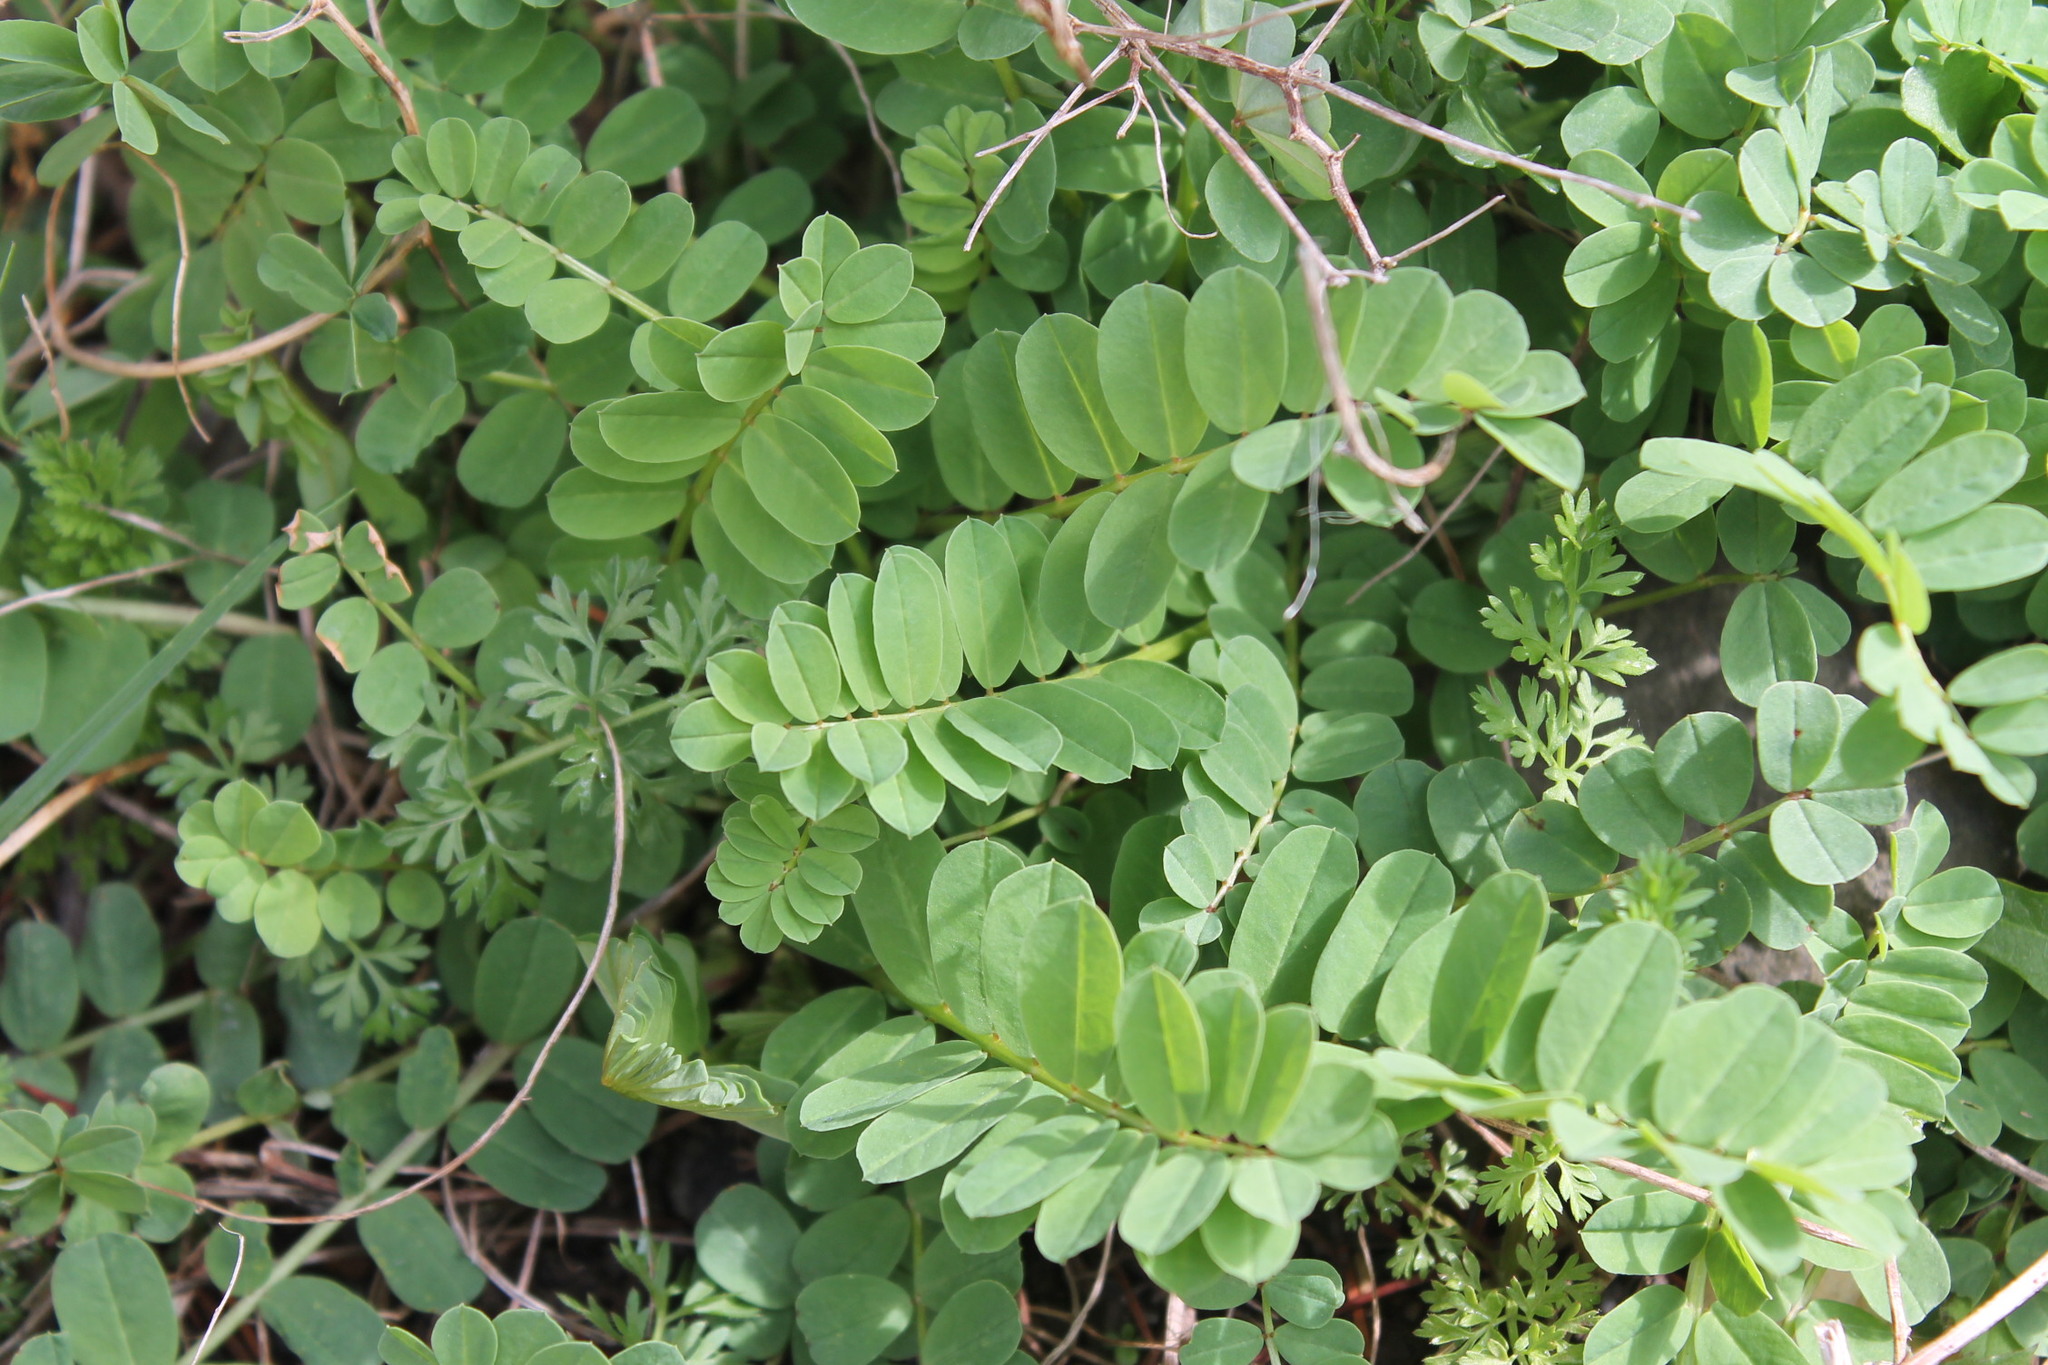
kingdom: Plantae
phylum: Tracheophyta
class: Magnoliopsida
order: Fabales
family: Fabaceae
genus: Coronilla
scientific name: Coronilla varia
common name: Crownvetch
